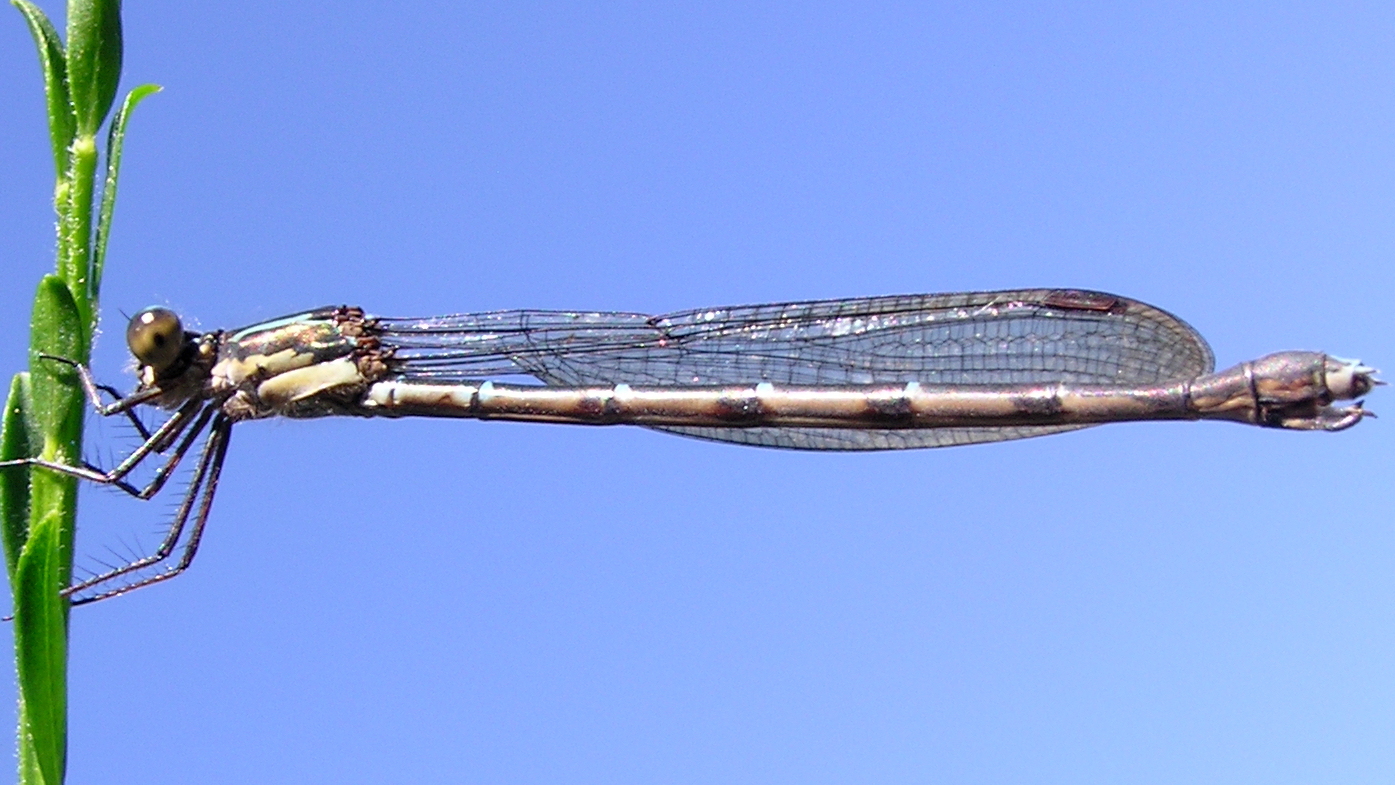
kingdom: Animalia
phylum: Arthropoda
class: Insecta
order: Odonata
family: Lestidae
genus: Austrolestes
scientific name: Austrolestes colensonis
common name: Blue damselfly
